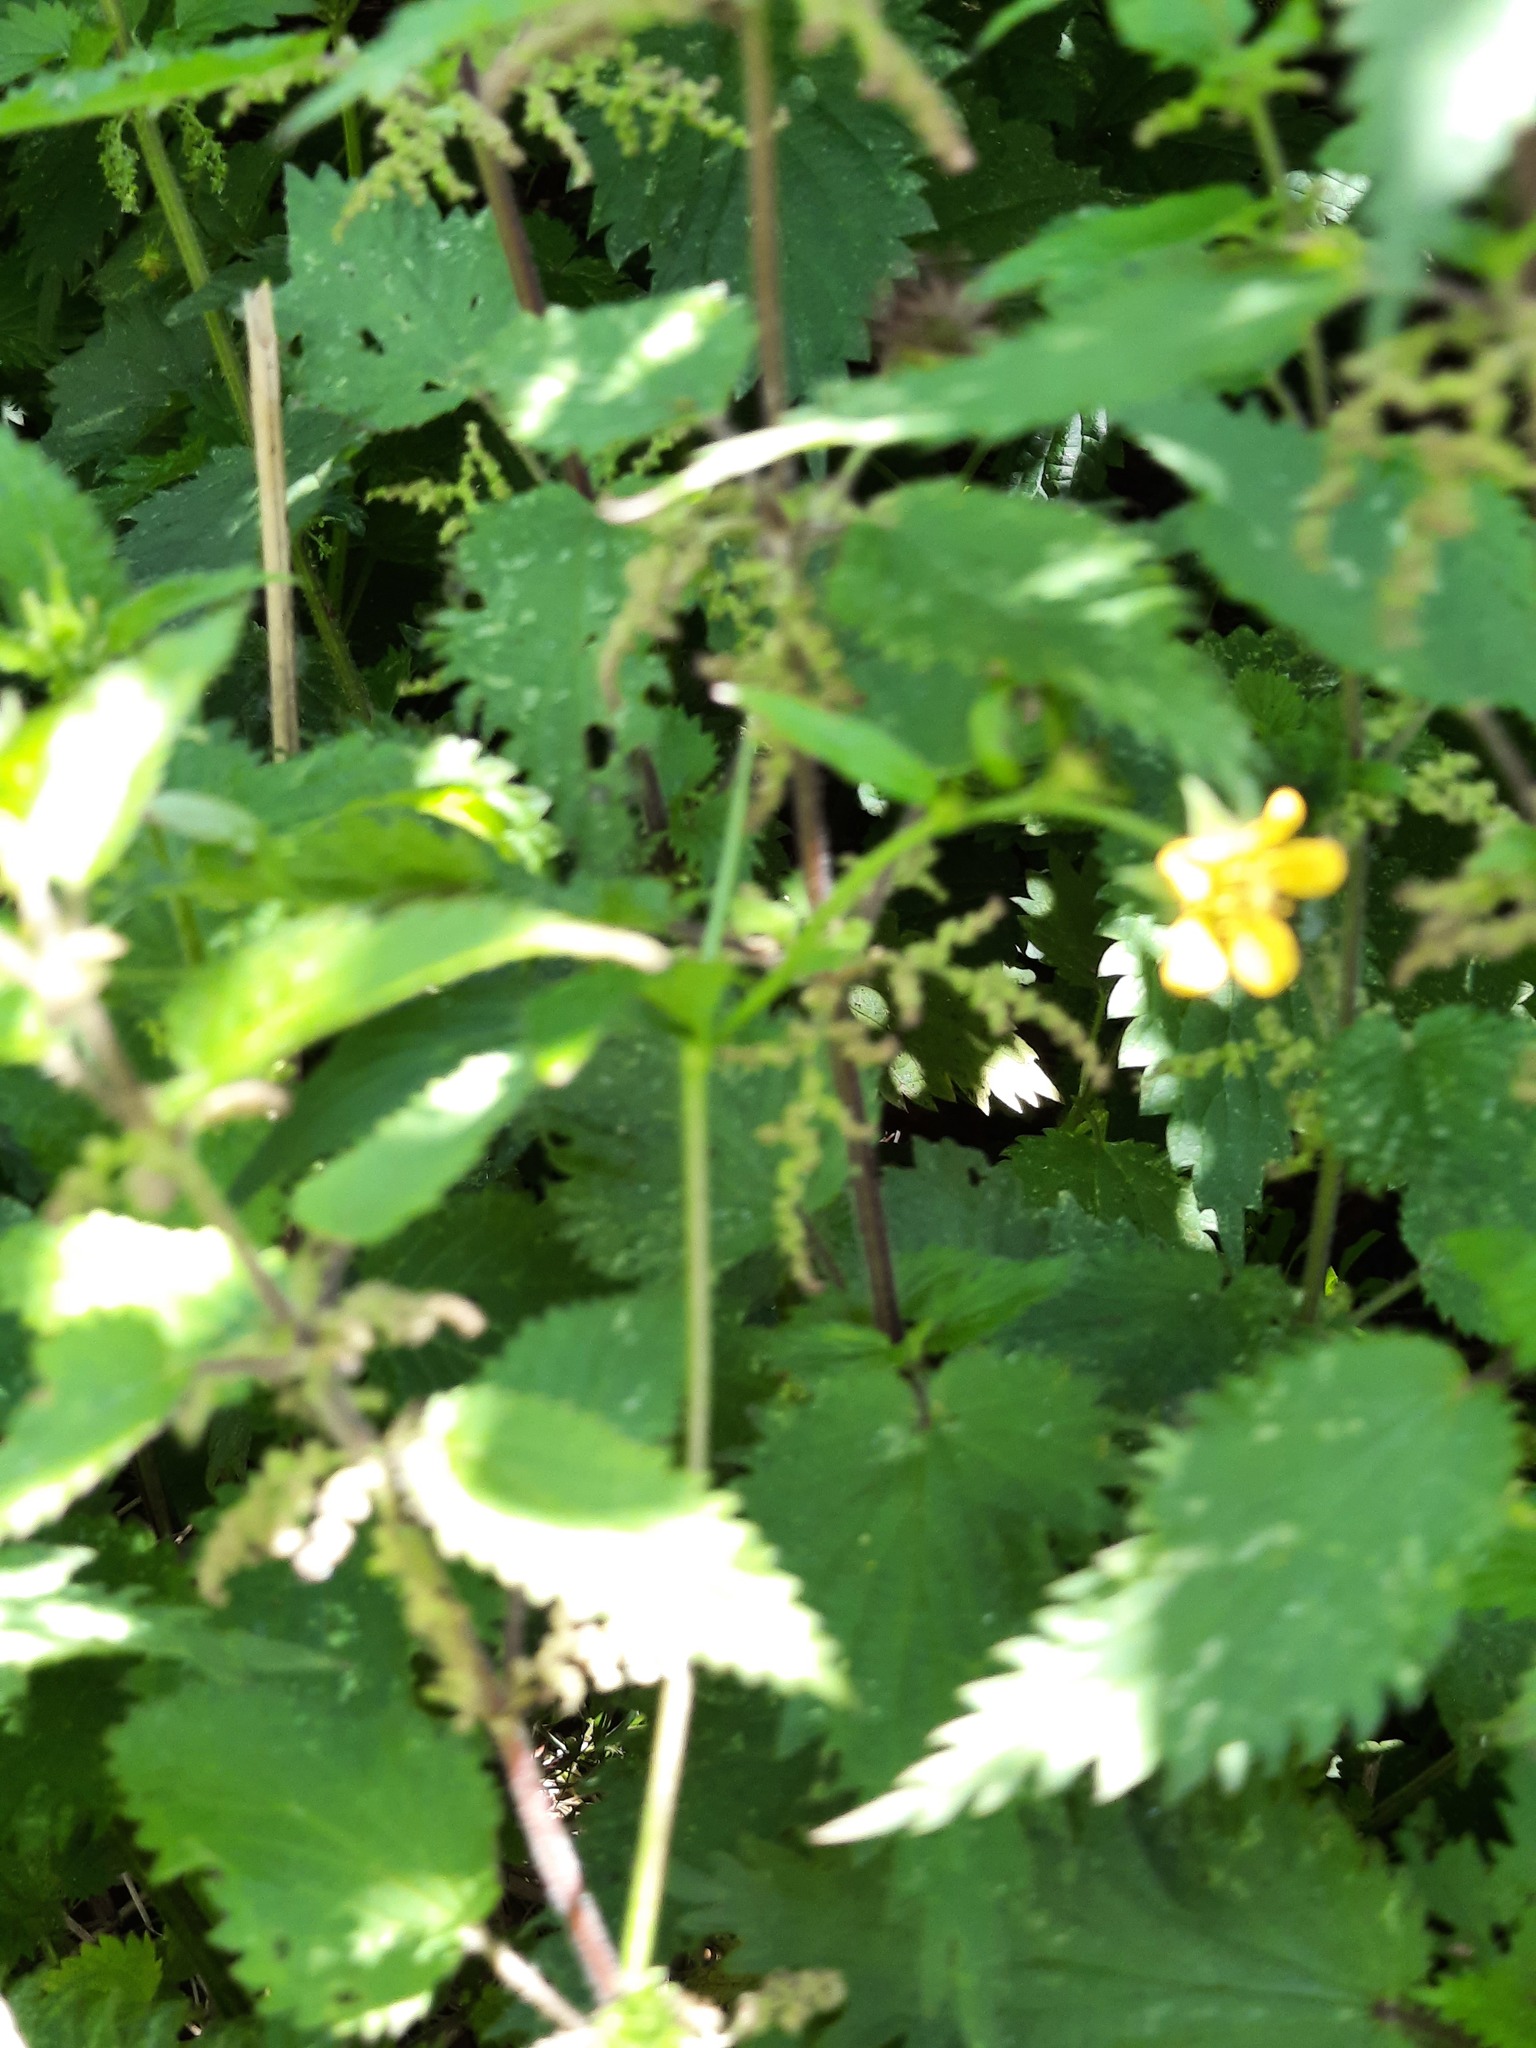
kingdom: Plantae
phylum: Tracheophyta
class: Magnoliopsida
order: Rosales
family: Rosaceae
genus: Geum
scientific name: Geum urbanum
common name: Wood avens
